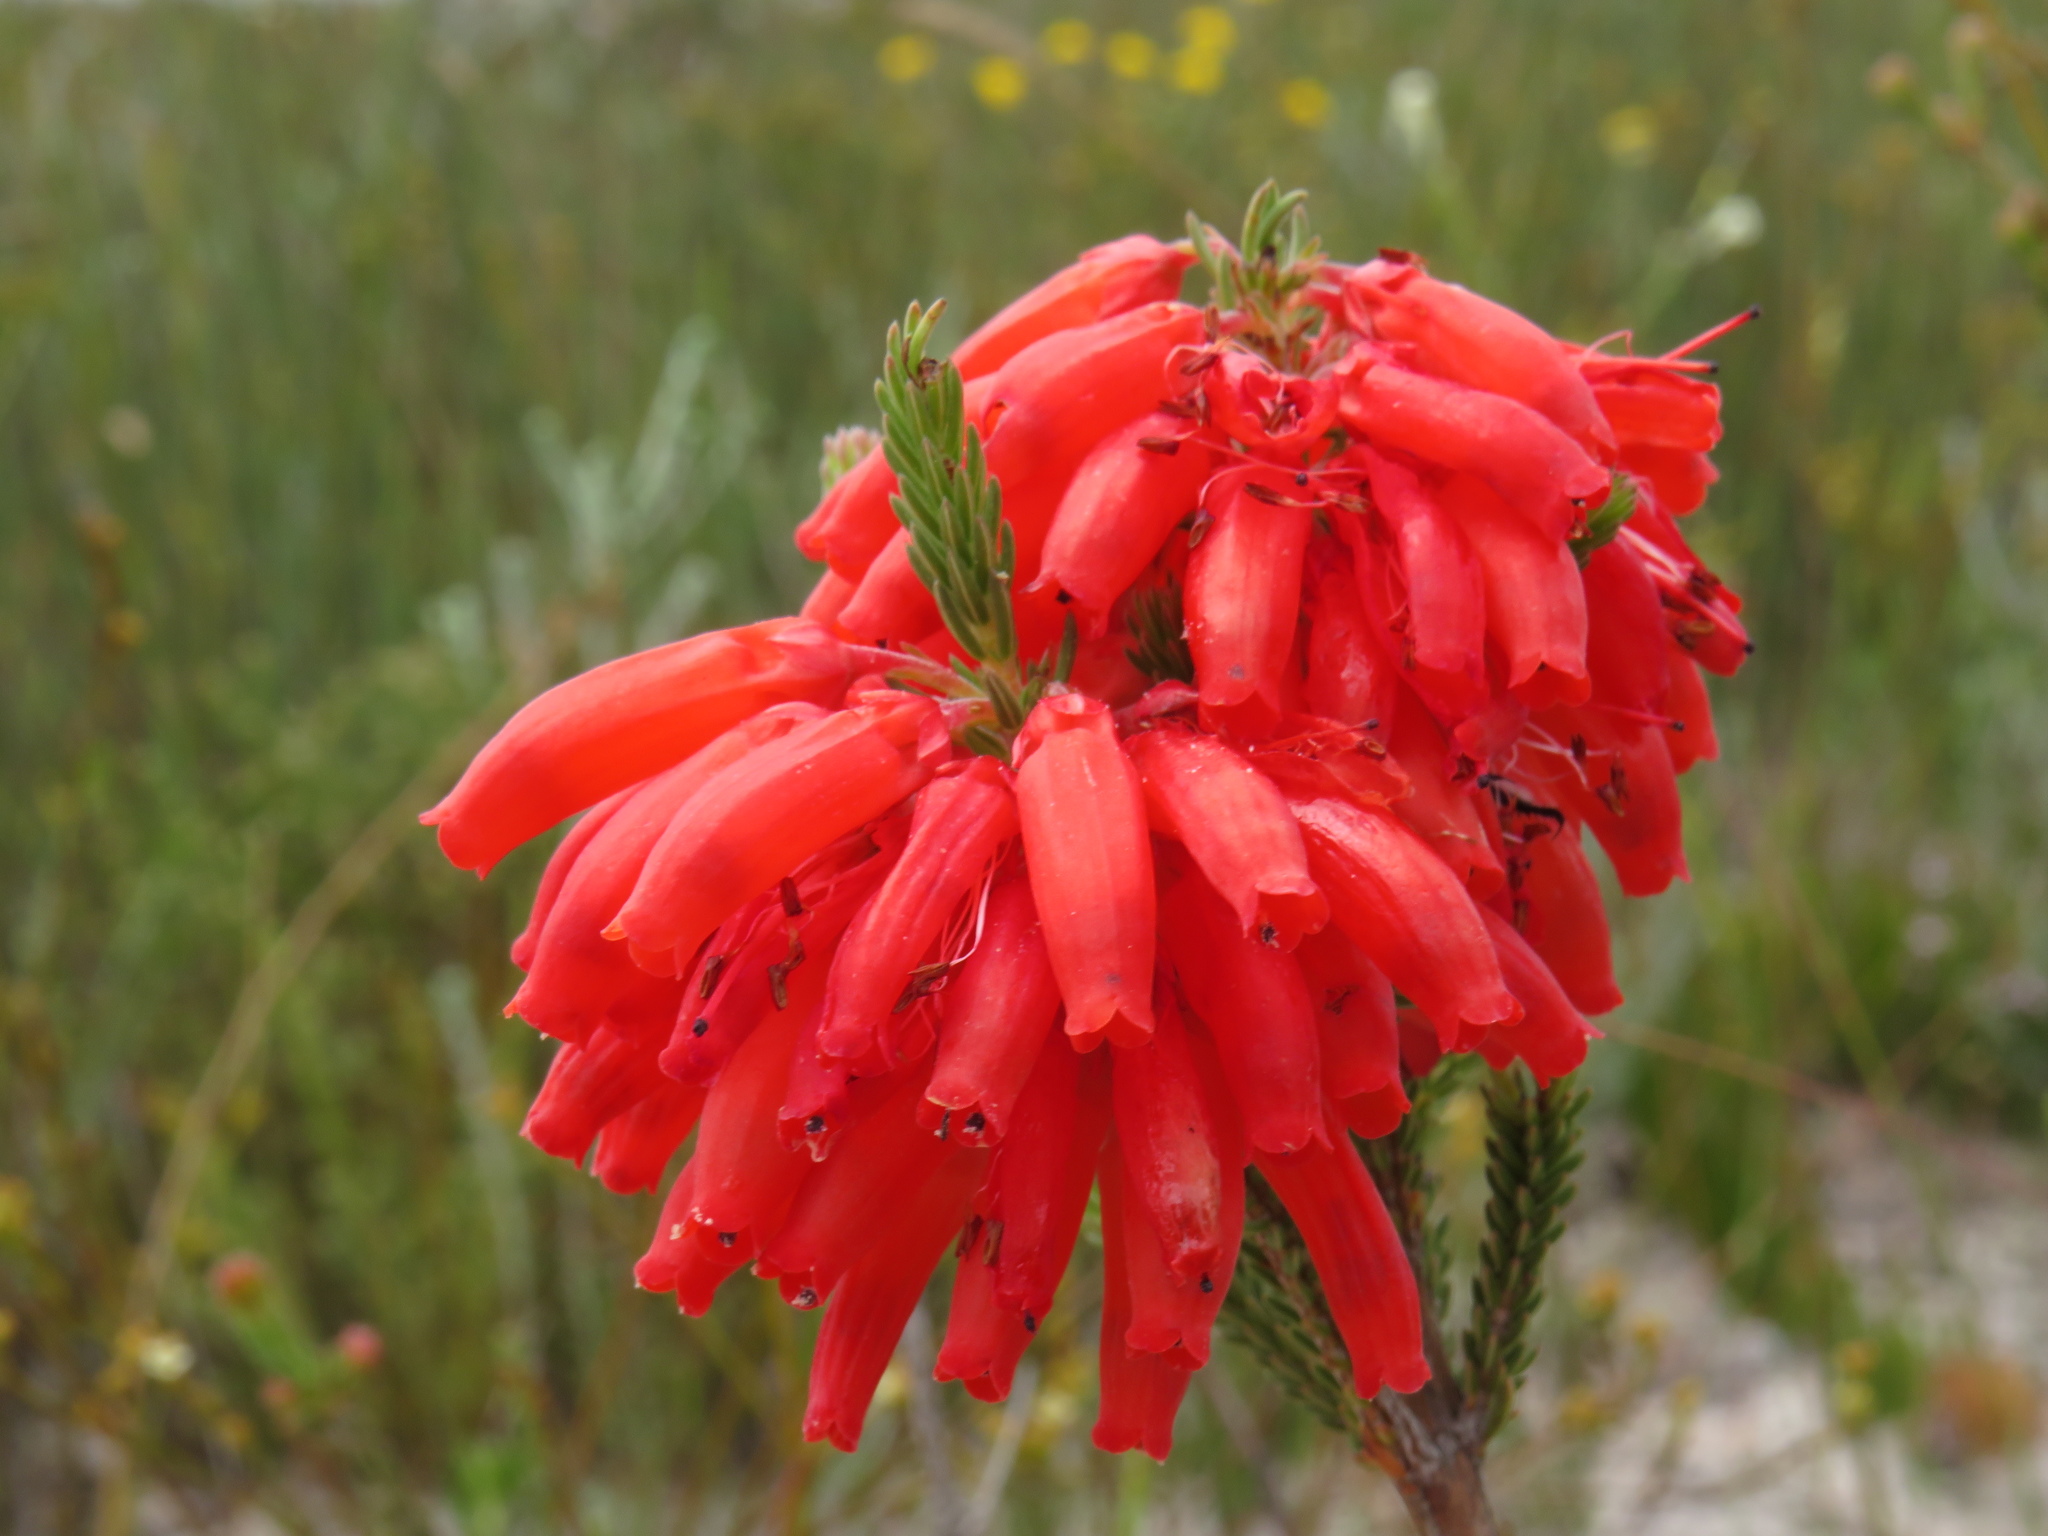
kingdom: Plantae
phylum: Tracheophyta
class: Magnoliopsida
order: Ericales
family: Ericaceae
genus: Erica
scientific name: Erica mammosa
